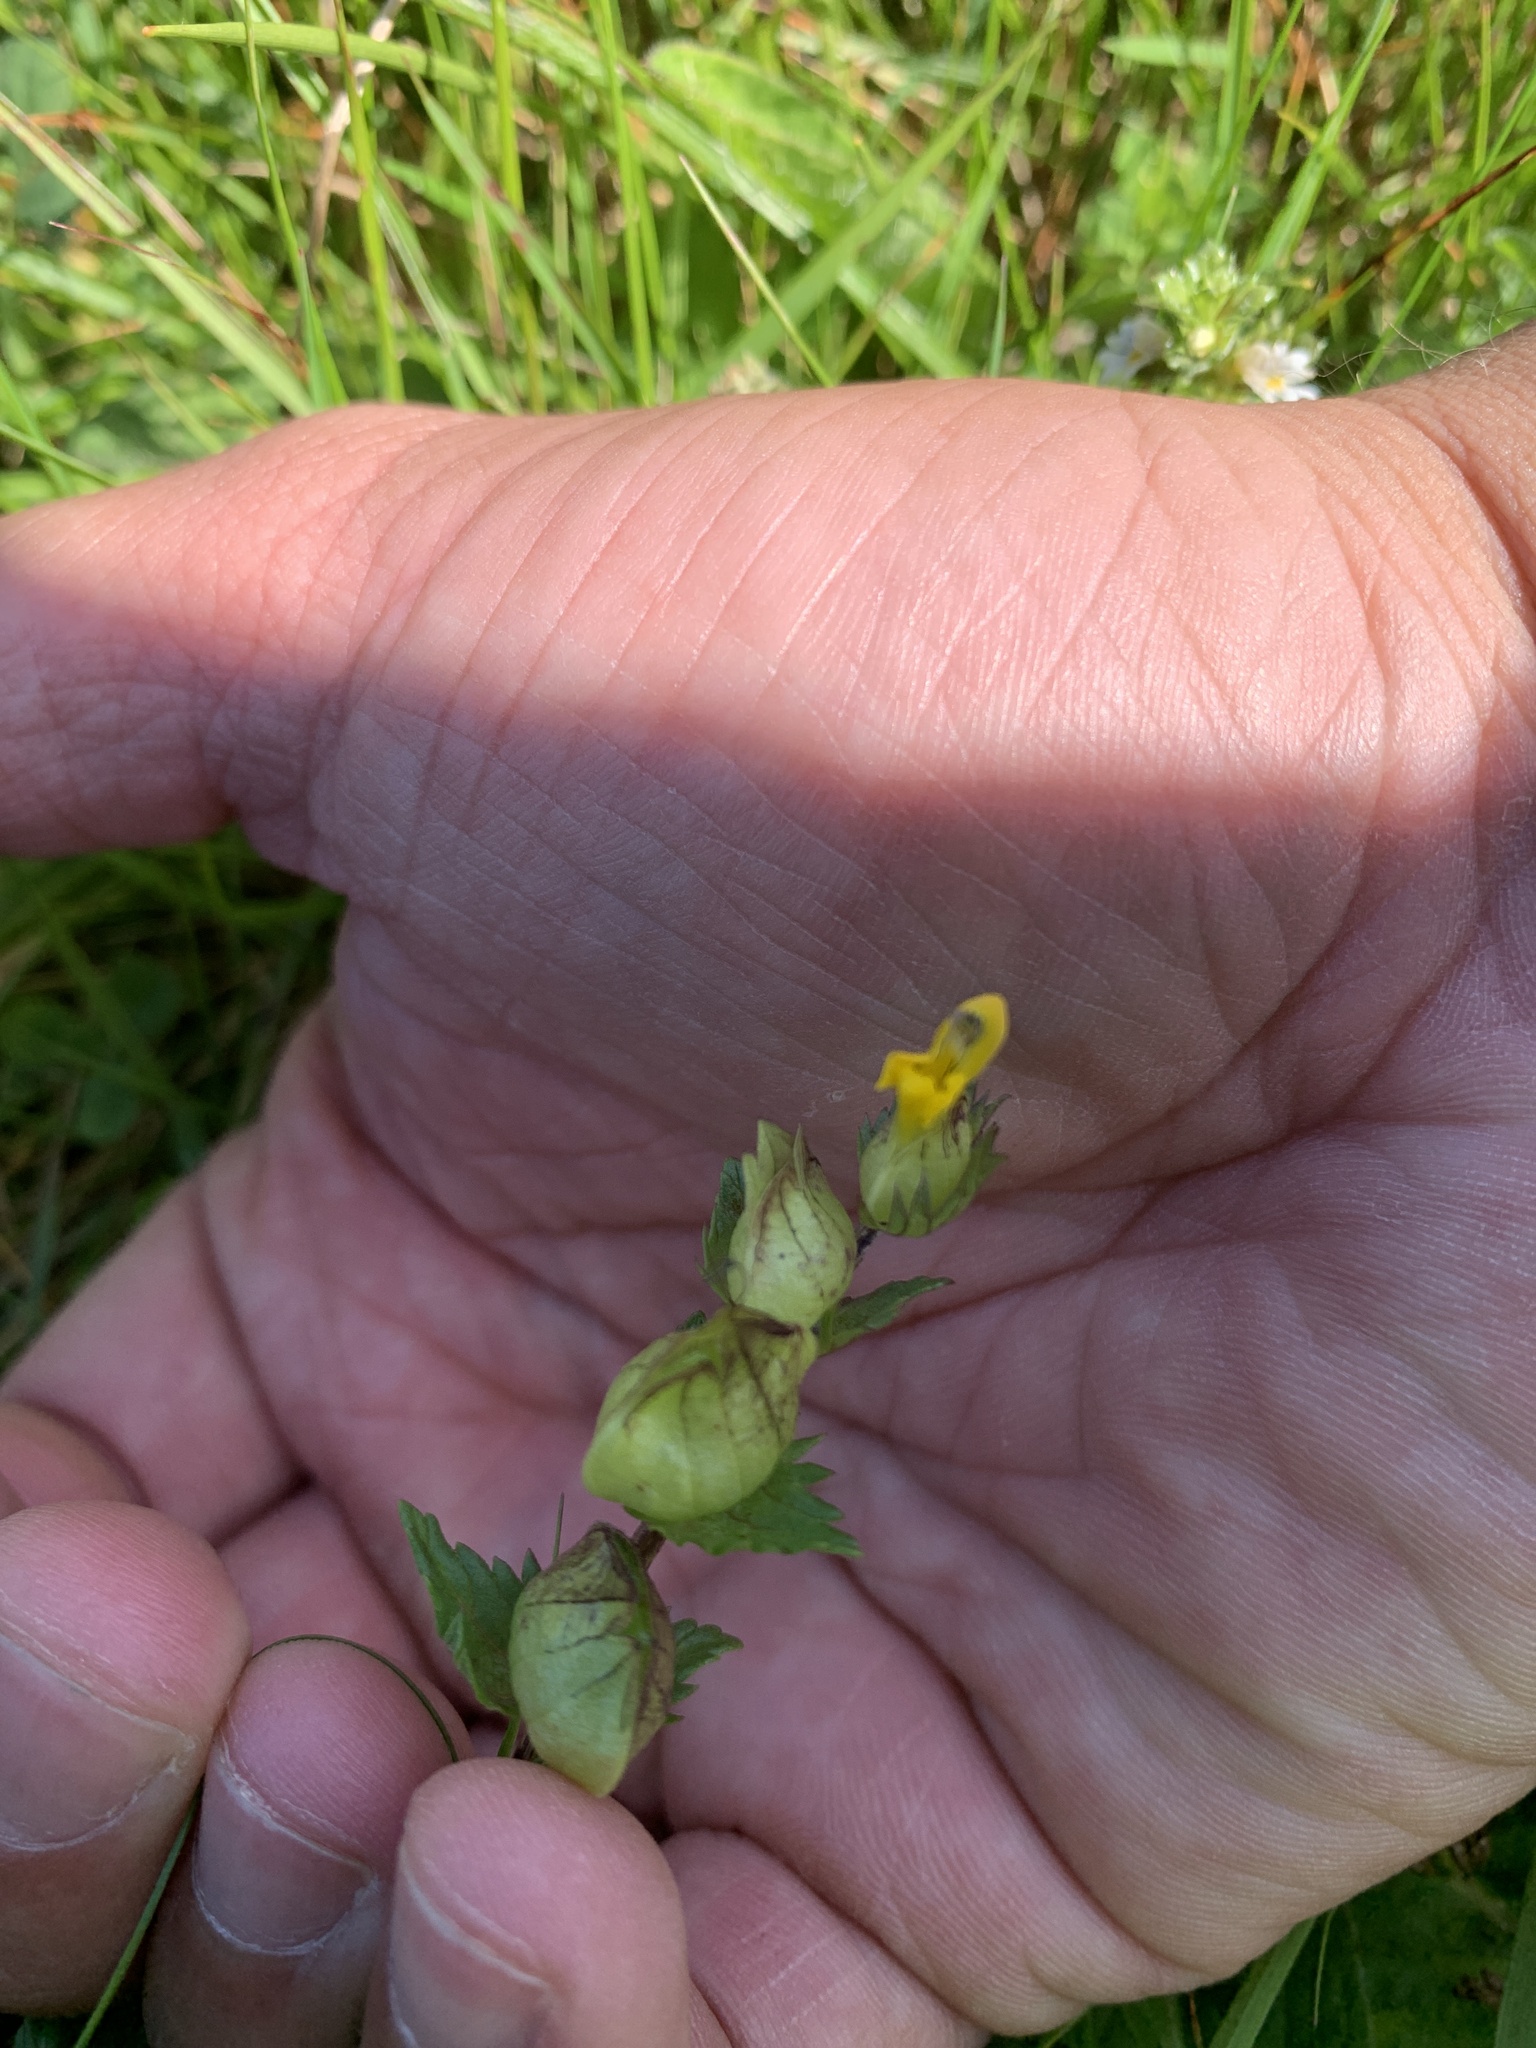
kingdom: Plantae
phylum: Tracheophyta
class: Magnoliopsida
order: Lamiales
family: Orobanchaceae
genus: Rhinanthus
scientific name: Rhinanthus minor
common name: Yellow-rattle
